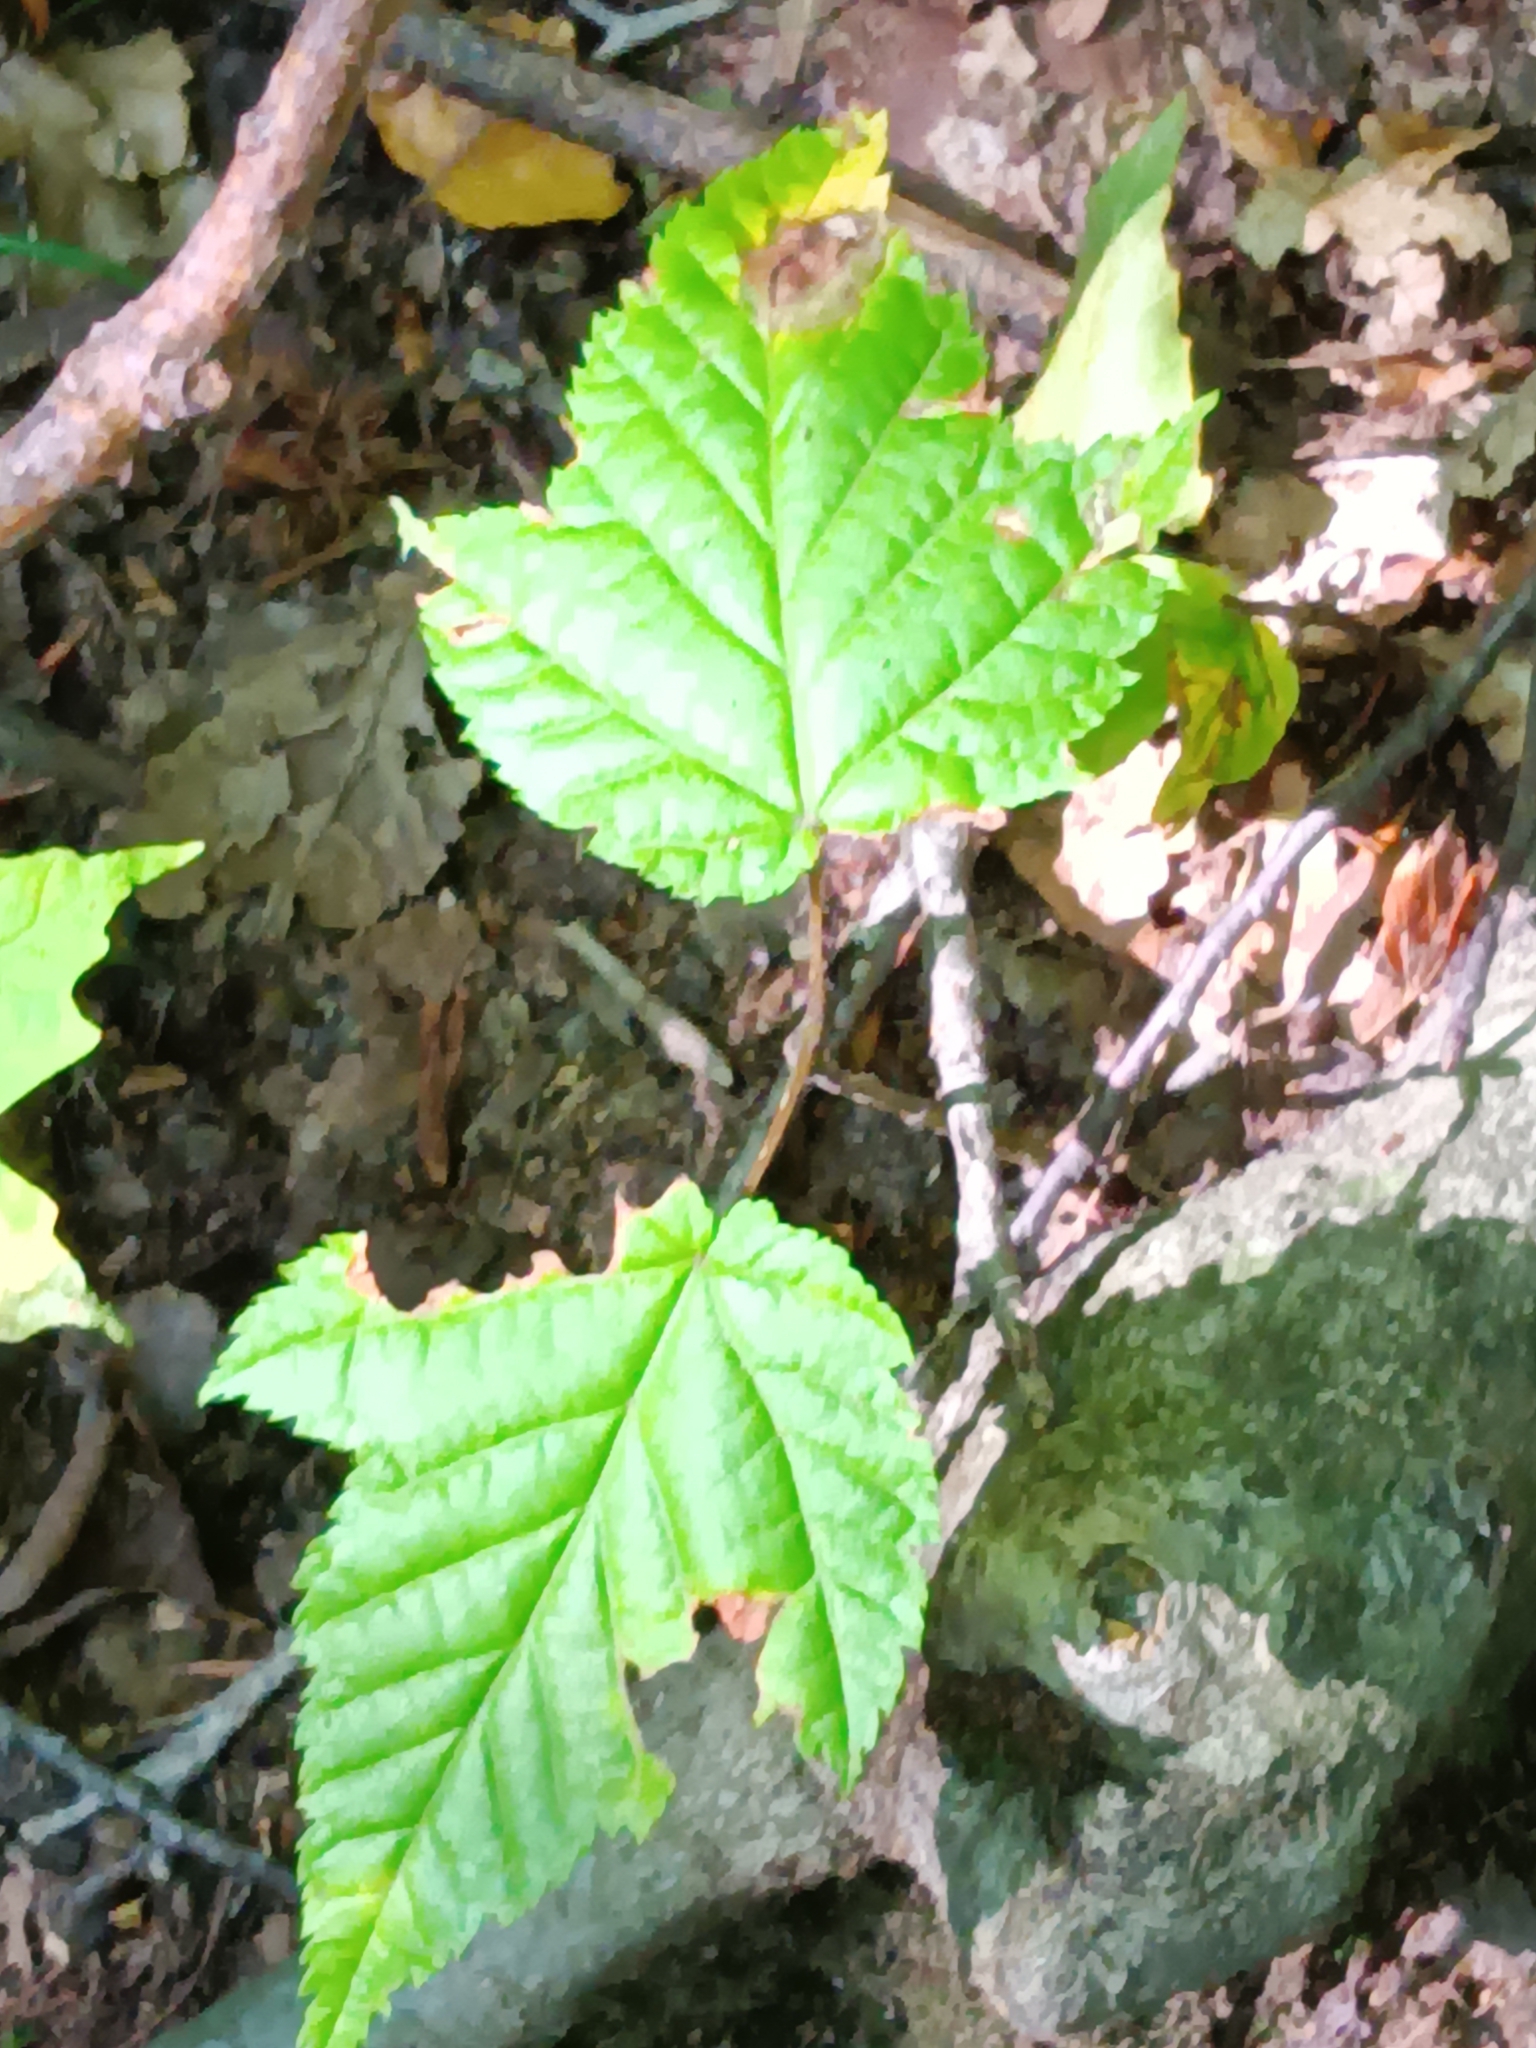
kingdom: Plantae
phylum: Tracheophyta
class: Magnoliopsida
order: Sapindales
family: Sapindaceae
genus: Acer
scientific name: Acer pensylvanicum
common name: Moosewood
